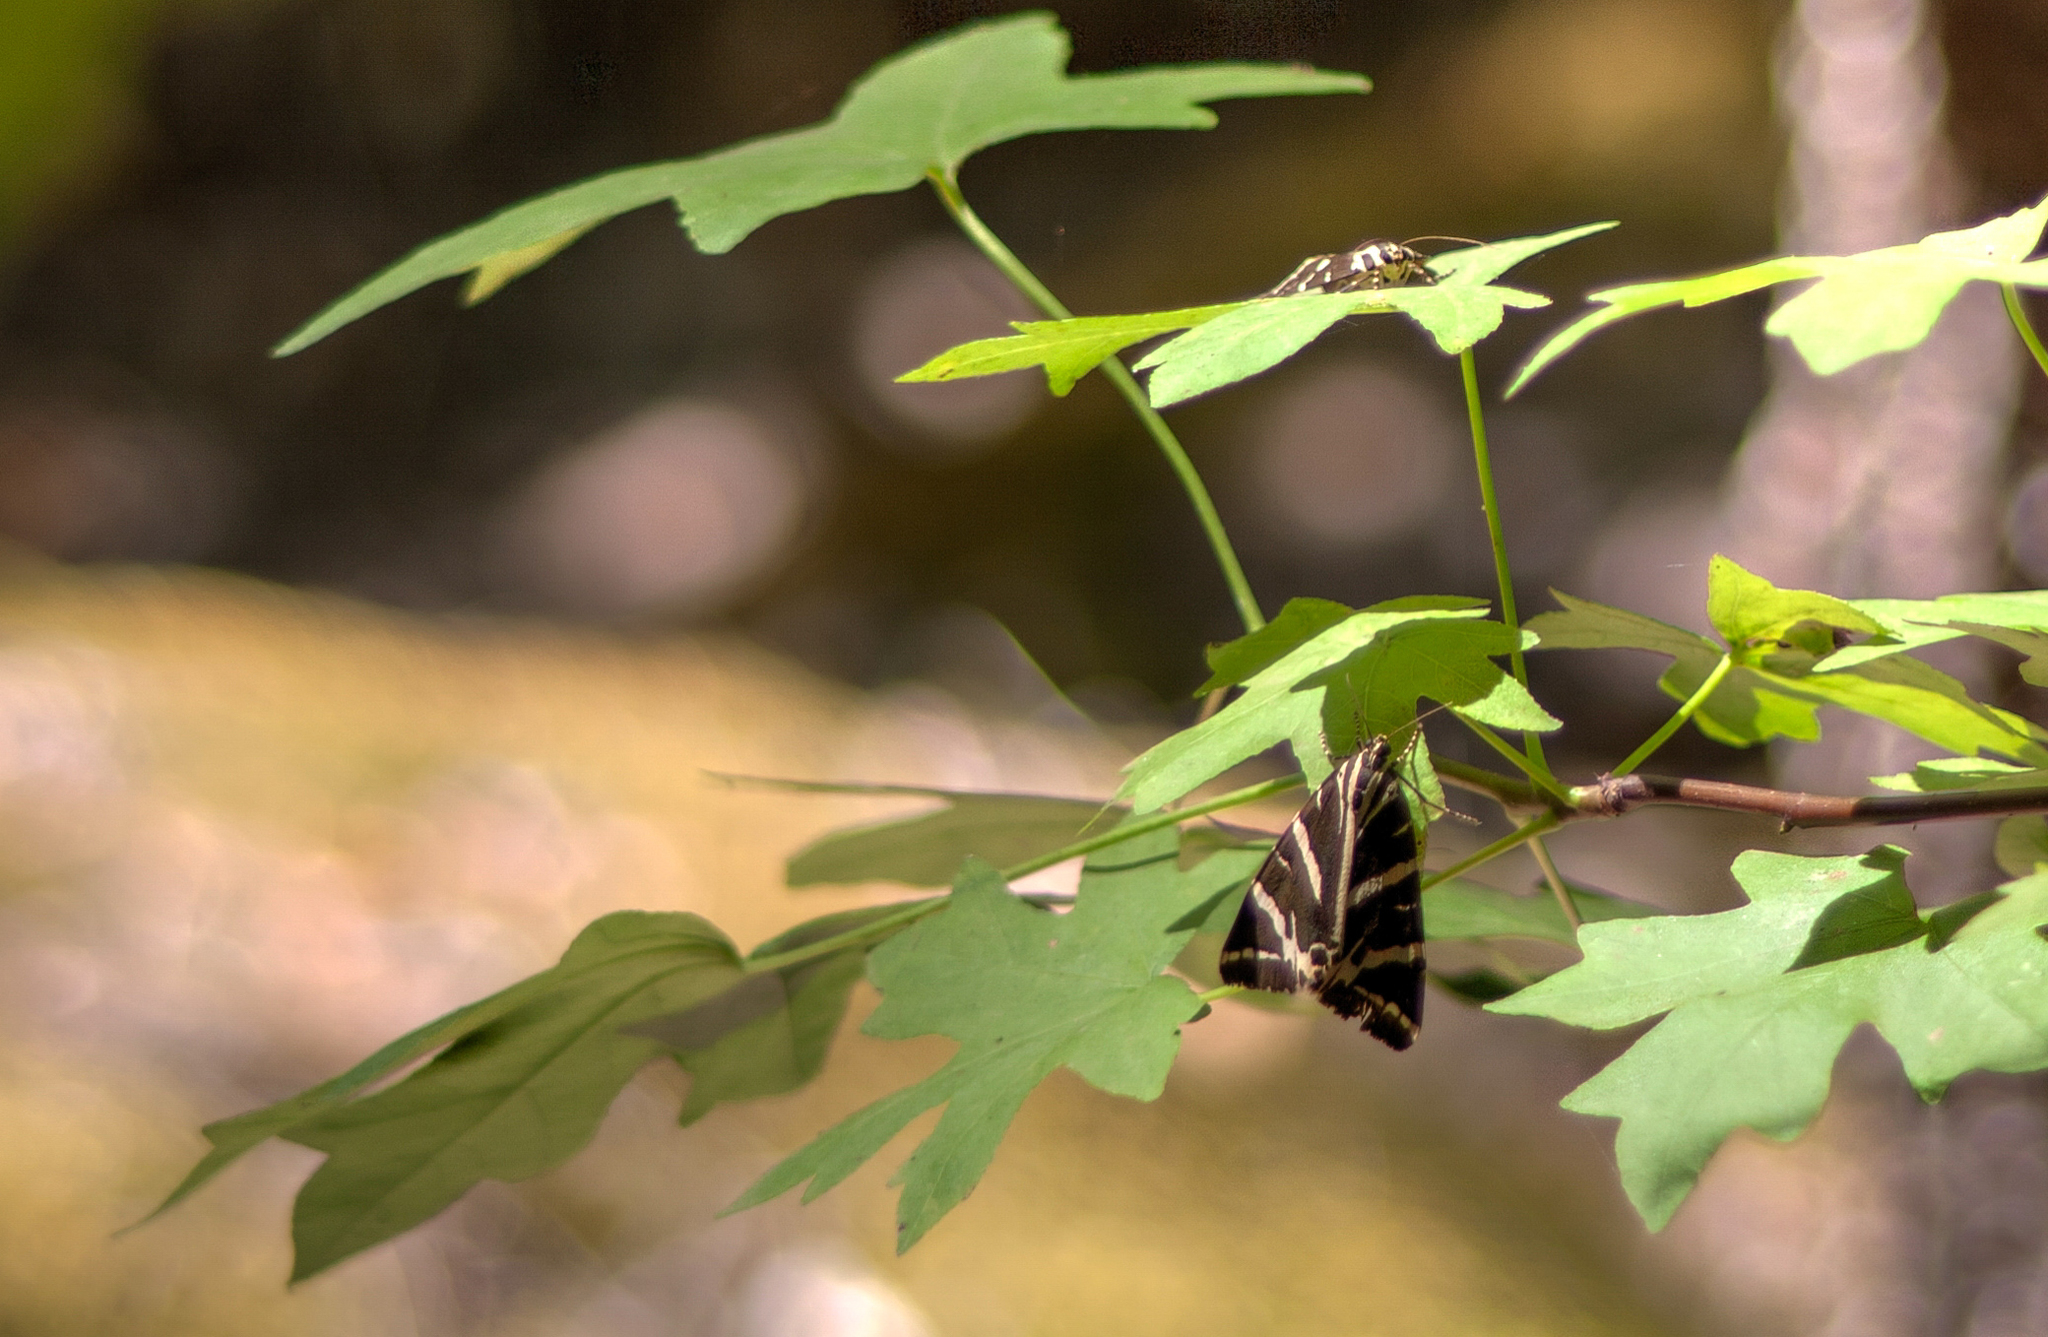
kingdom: Animalia
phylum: Arthropoda
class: Insecta
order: Lepidoptera
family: Erebidae
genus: Euplagia
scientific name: Euplagia quadripunctaria
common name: Jersey tiger
